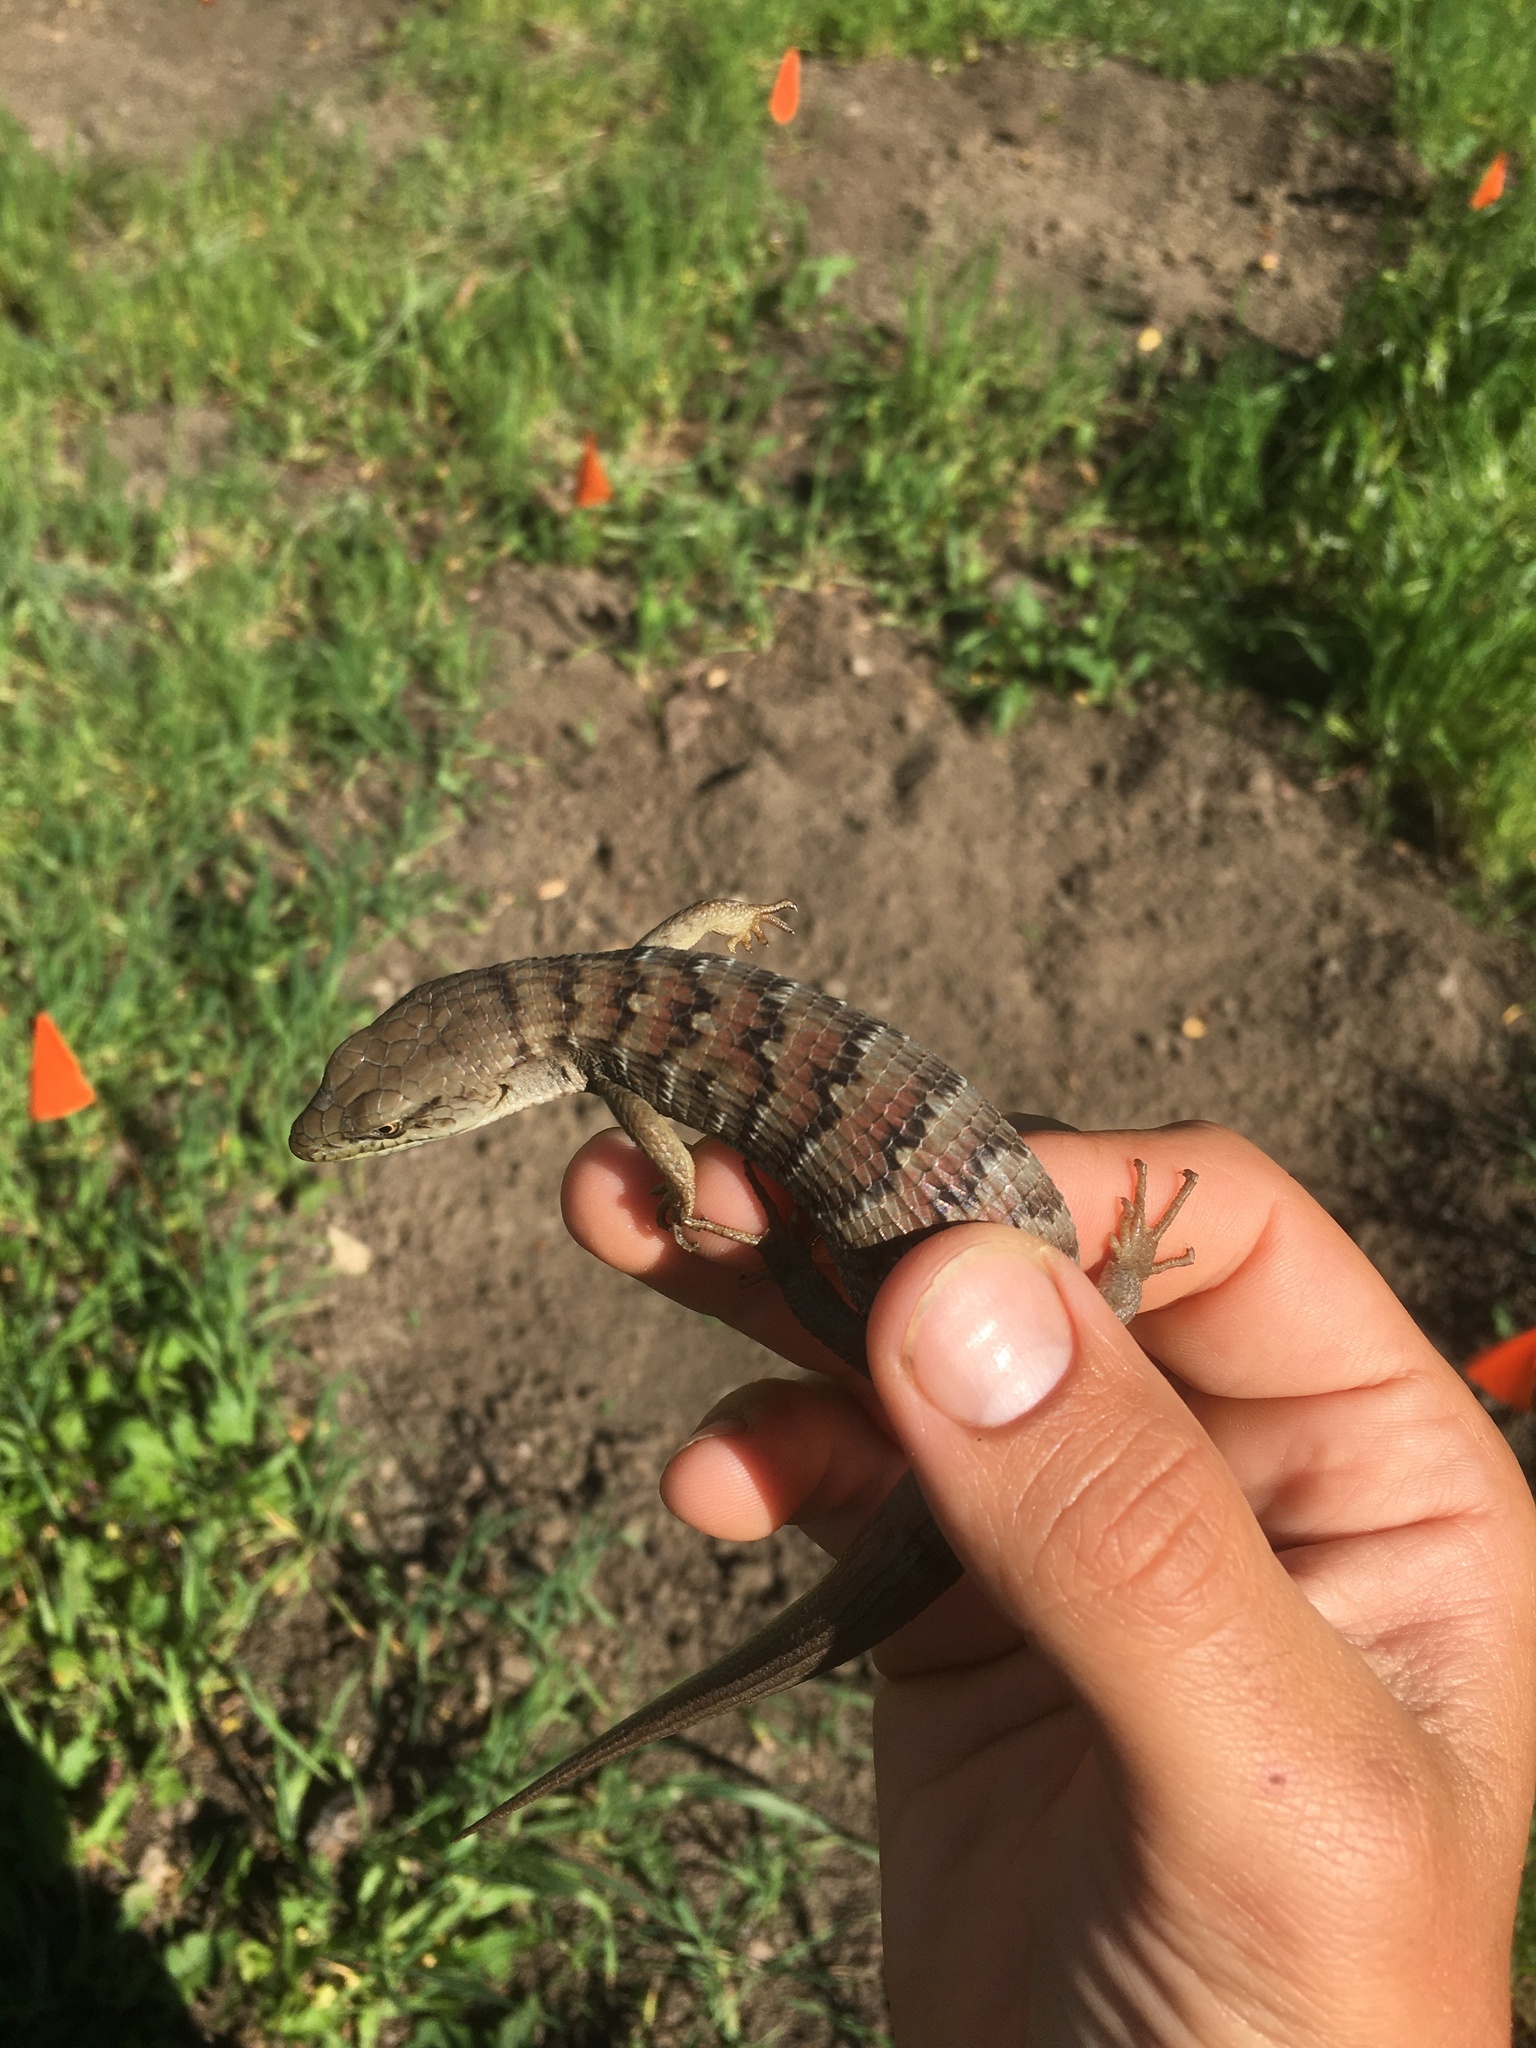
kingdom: Animalia
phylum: Chordata
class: Squamata
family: Anguidae
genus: Elgaria
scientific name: Elgaria multicarinata
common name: Southern alligator lizard
